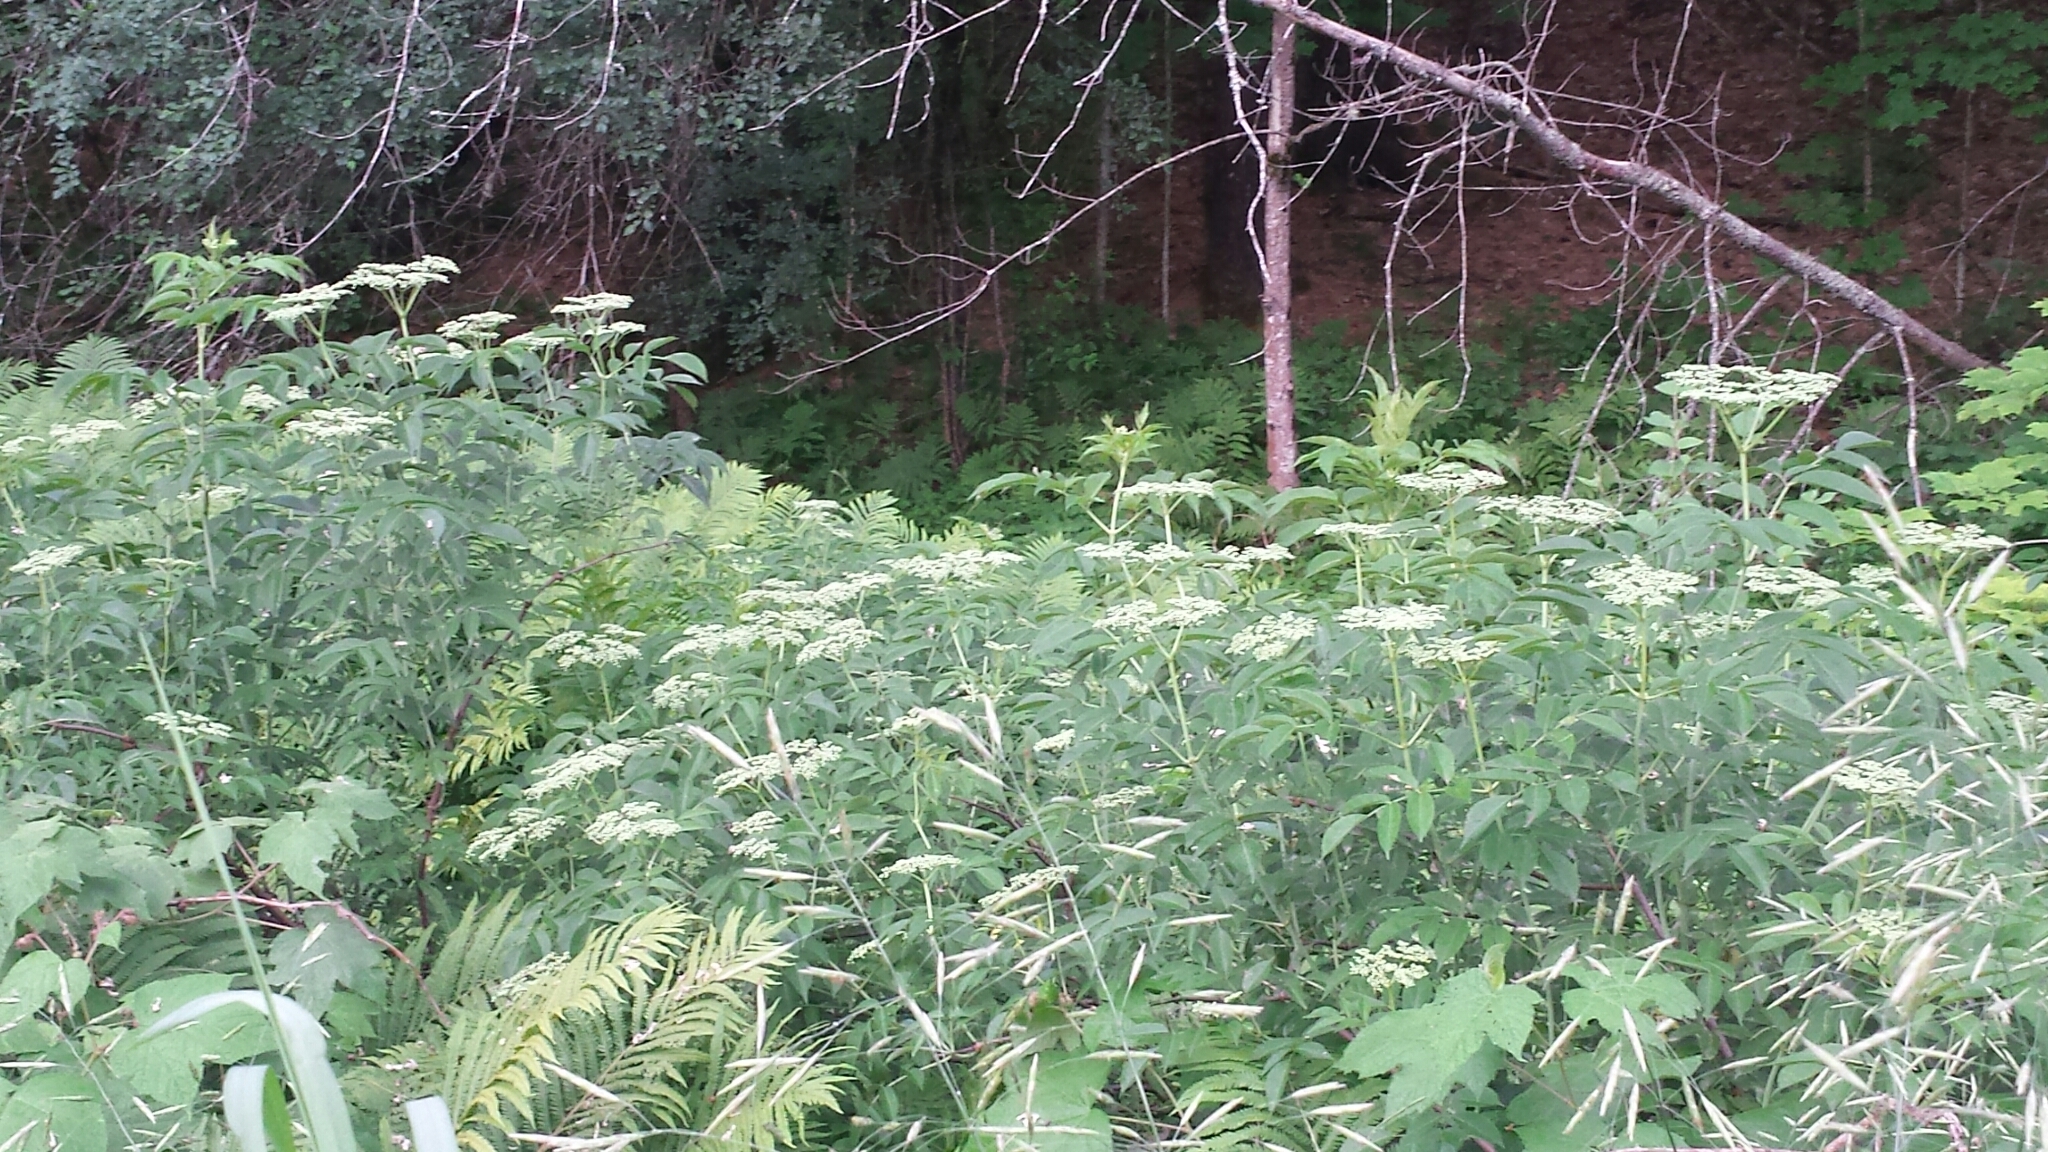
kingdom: Plantae
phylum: Tracheophyta
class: Magnoliopsida
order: Dipsacales
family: Viburnaceae
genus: Sambucus
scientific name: Sambucus canadensis
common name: American elder
